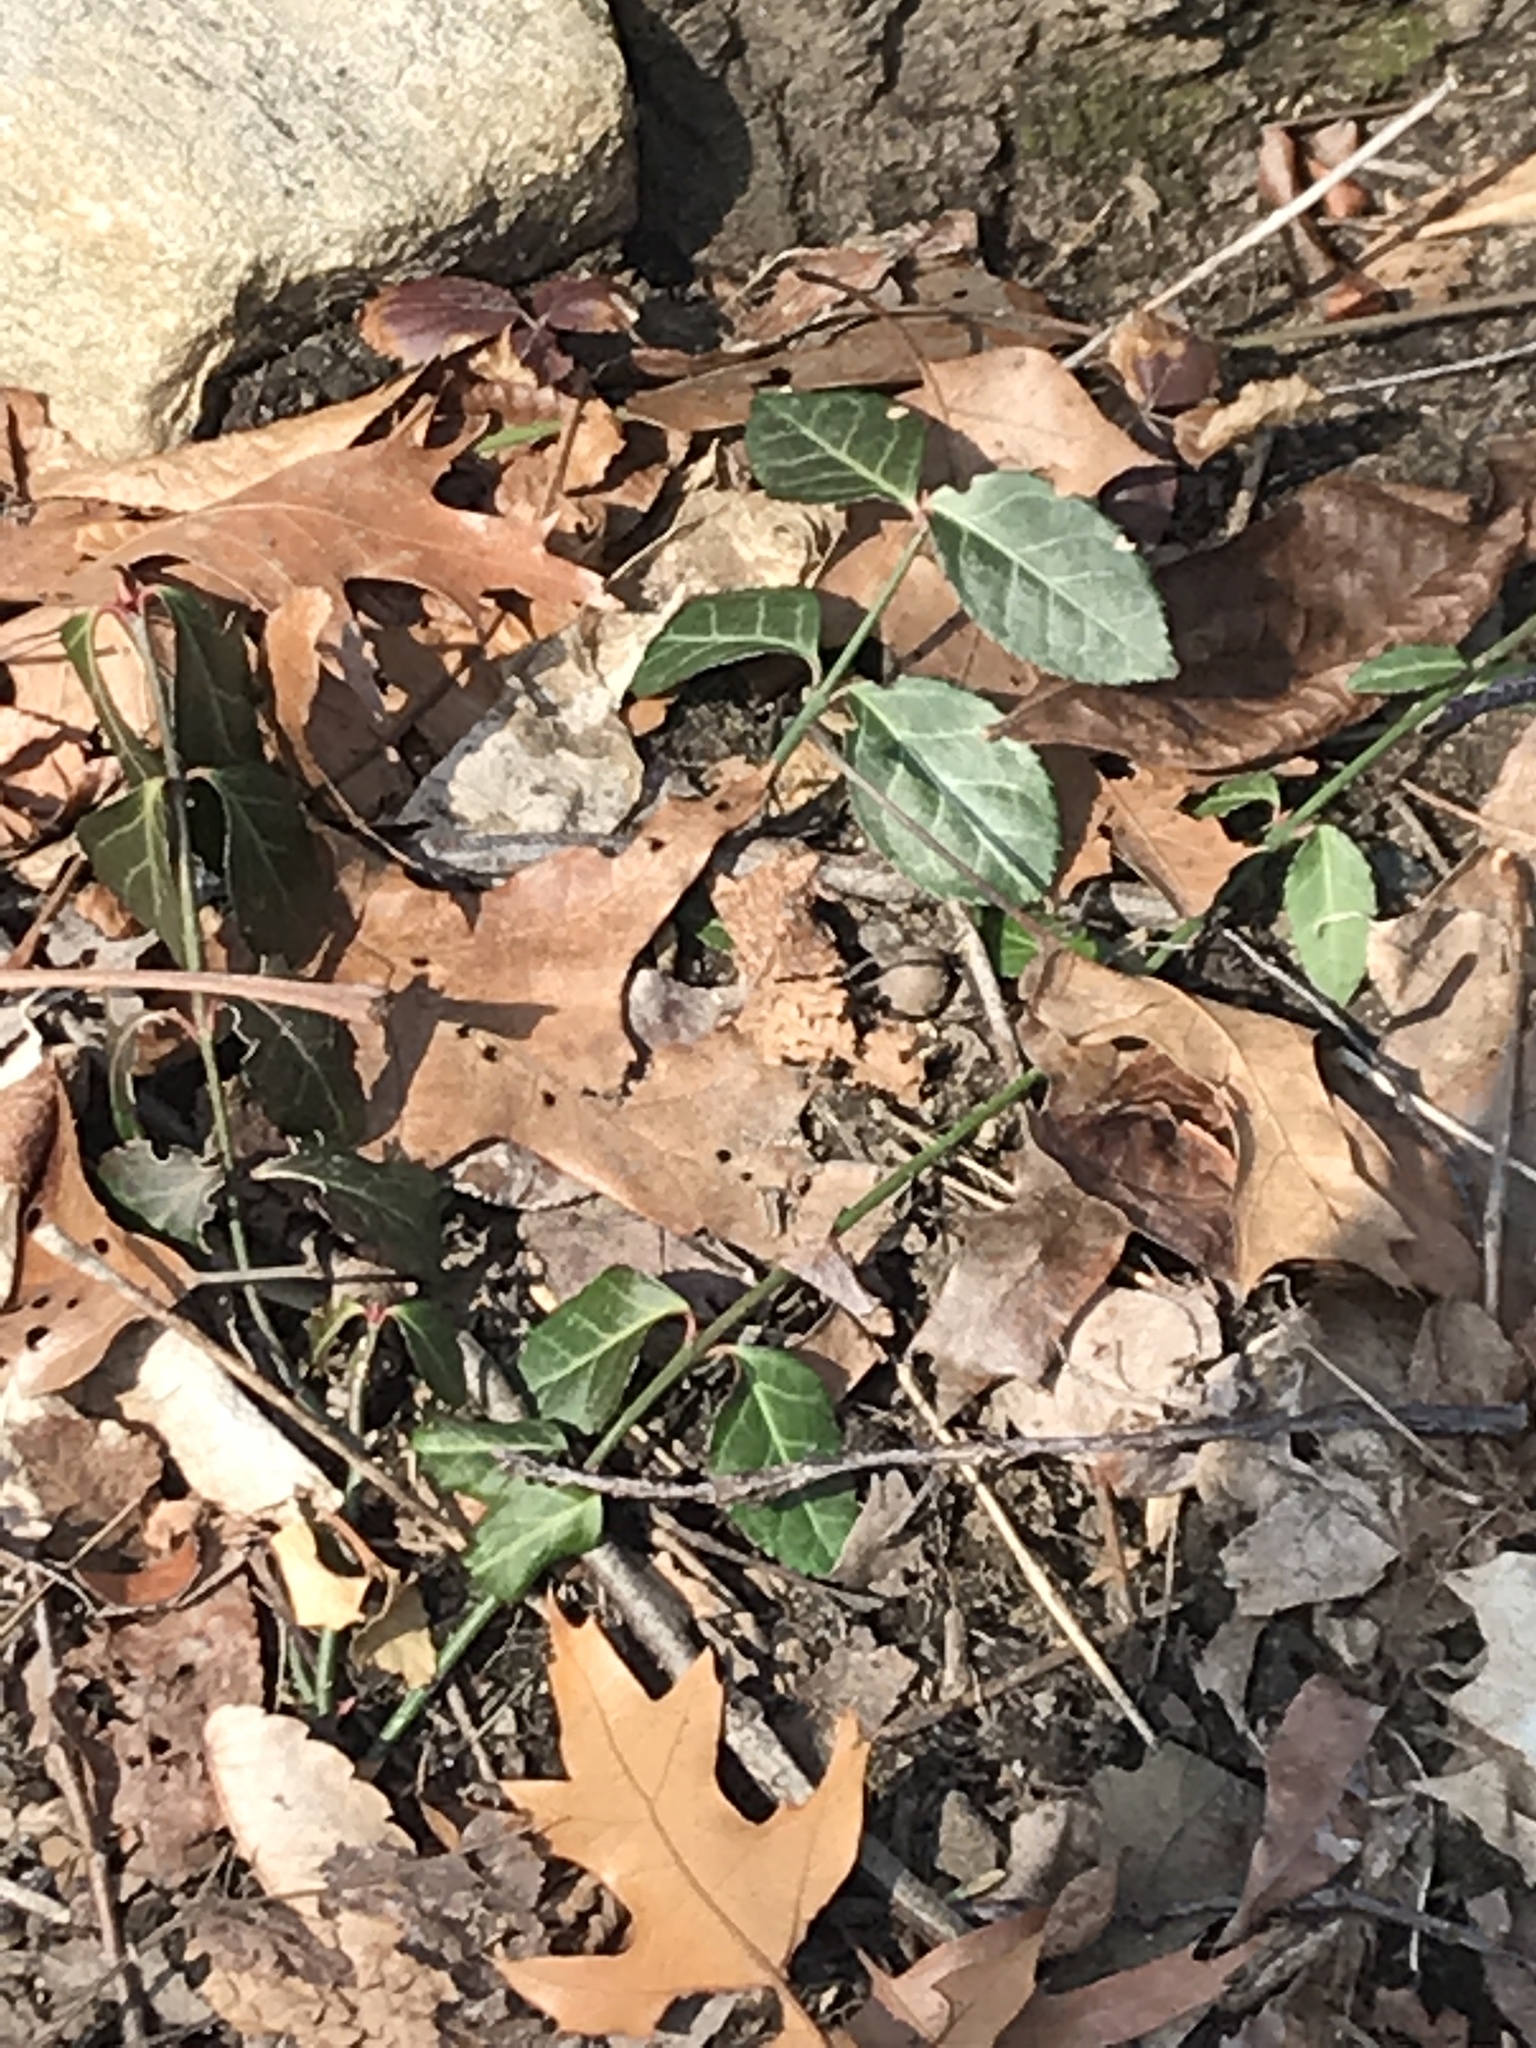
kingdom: Plantae
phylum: Tracheophyta
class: Magnoliopsida
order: Celastrales
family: Celastraceae
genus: Euonymus
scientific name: Euonymus fortunei
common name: Climbing euonymus
